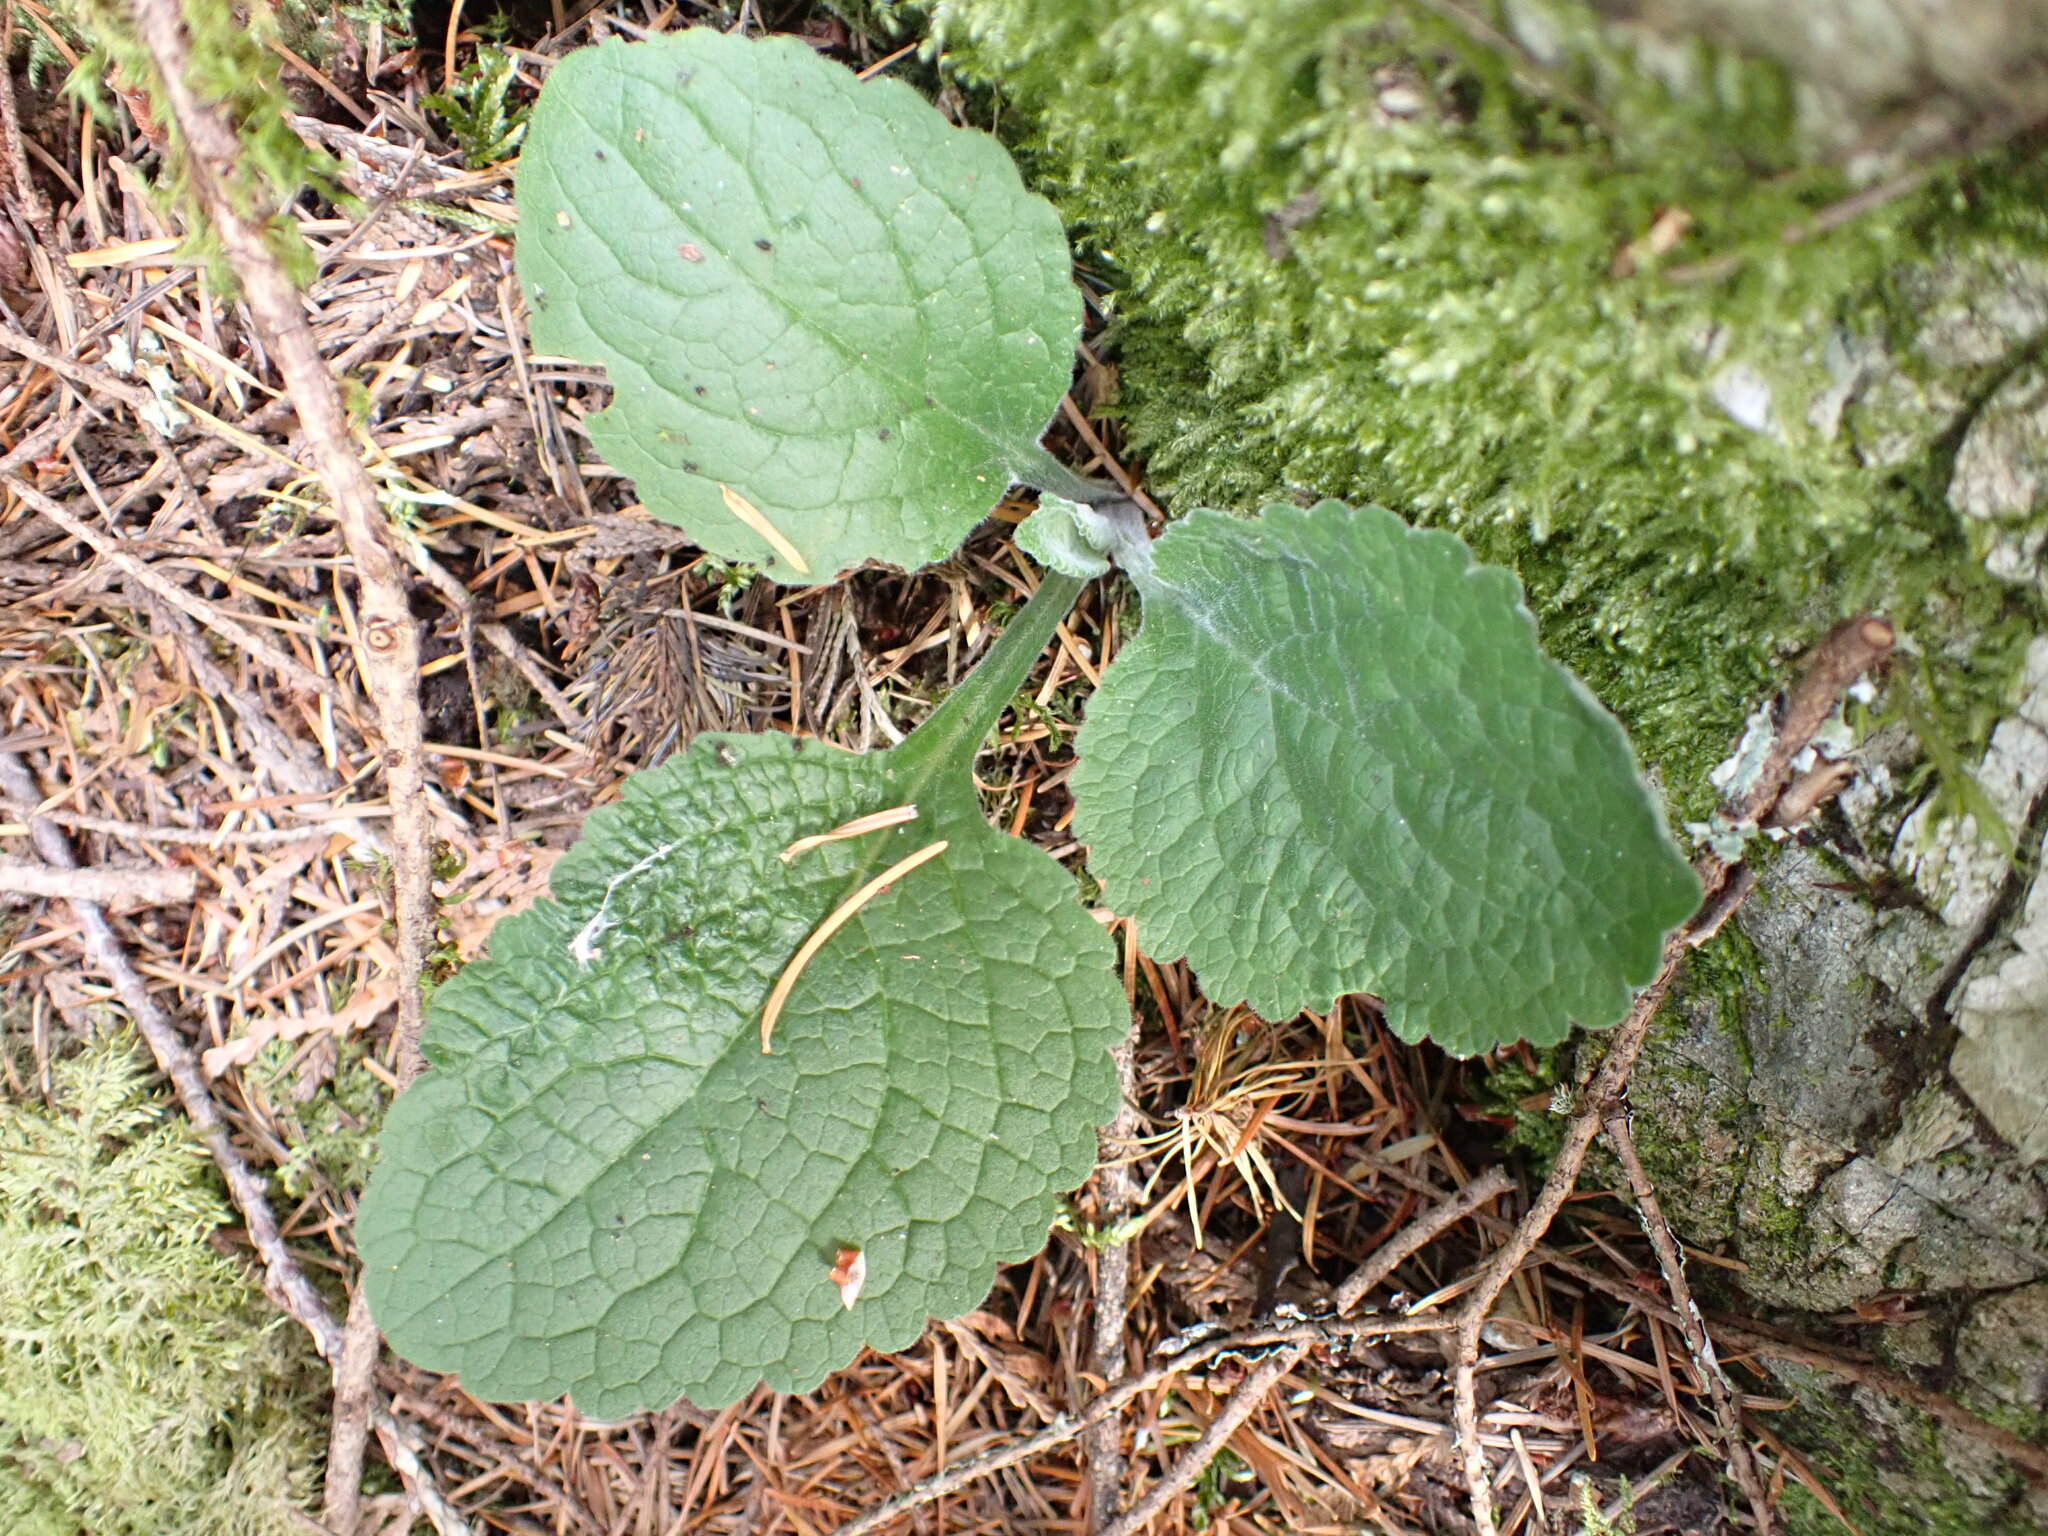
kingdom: Plantae
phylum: Tracheophyta
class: Magnoliopsida
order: Lamiales
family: Plantaginaceae
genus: Digitalis
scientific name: Digitalis purpurea
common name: Foxglove
